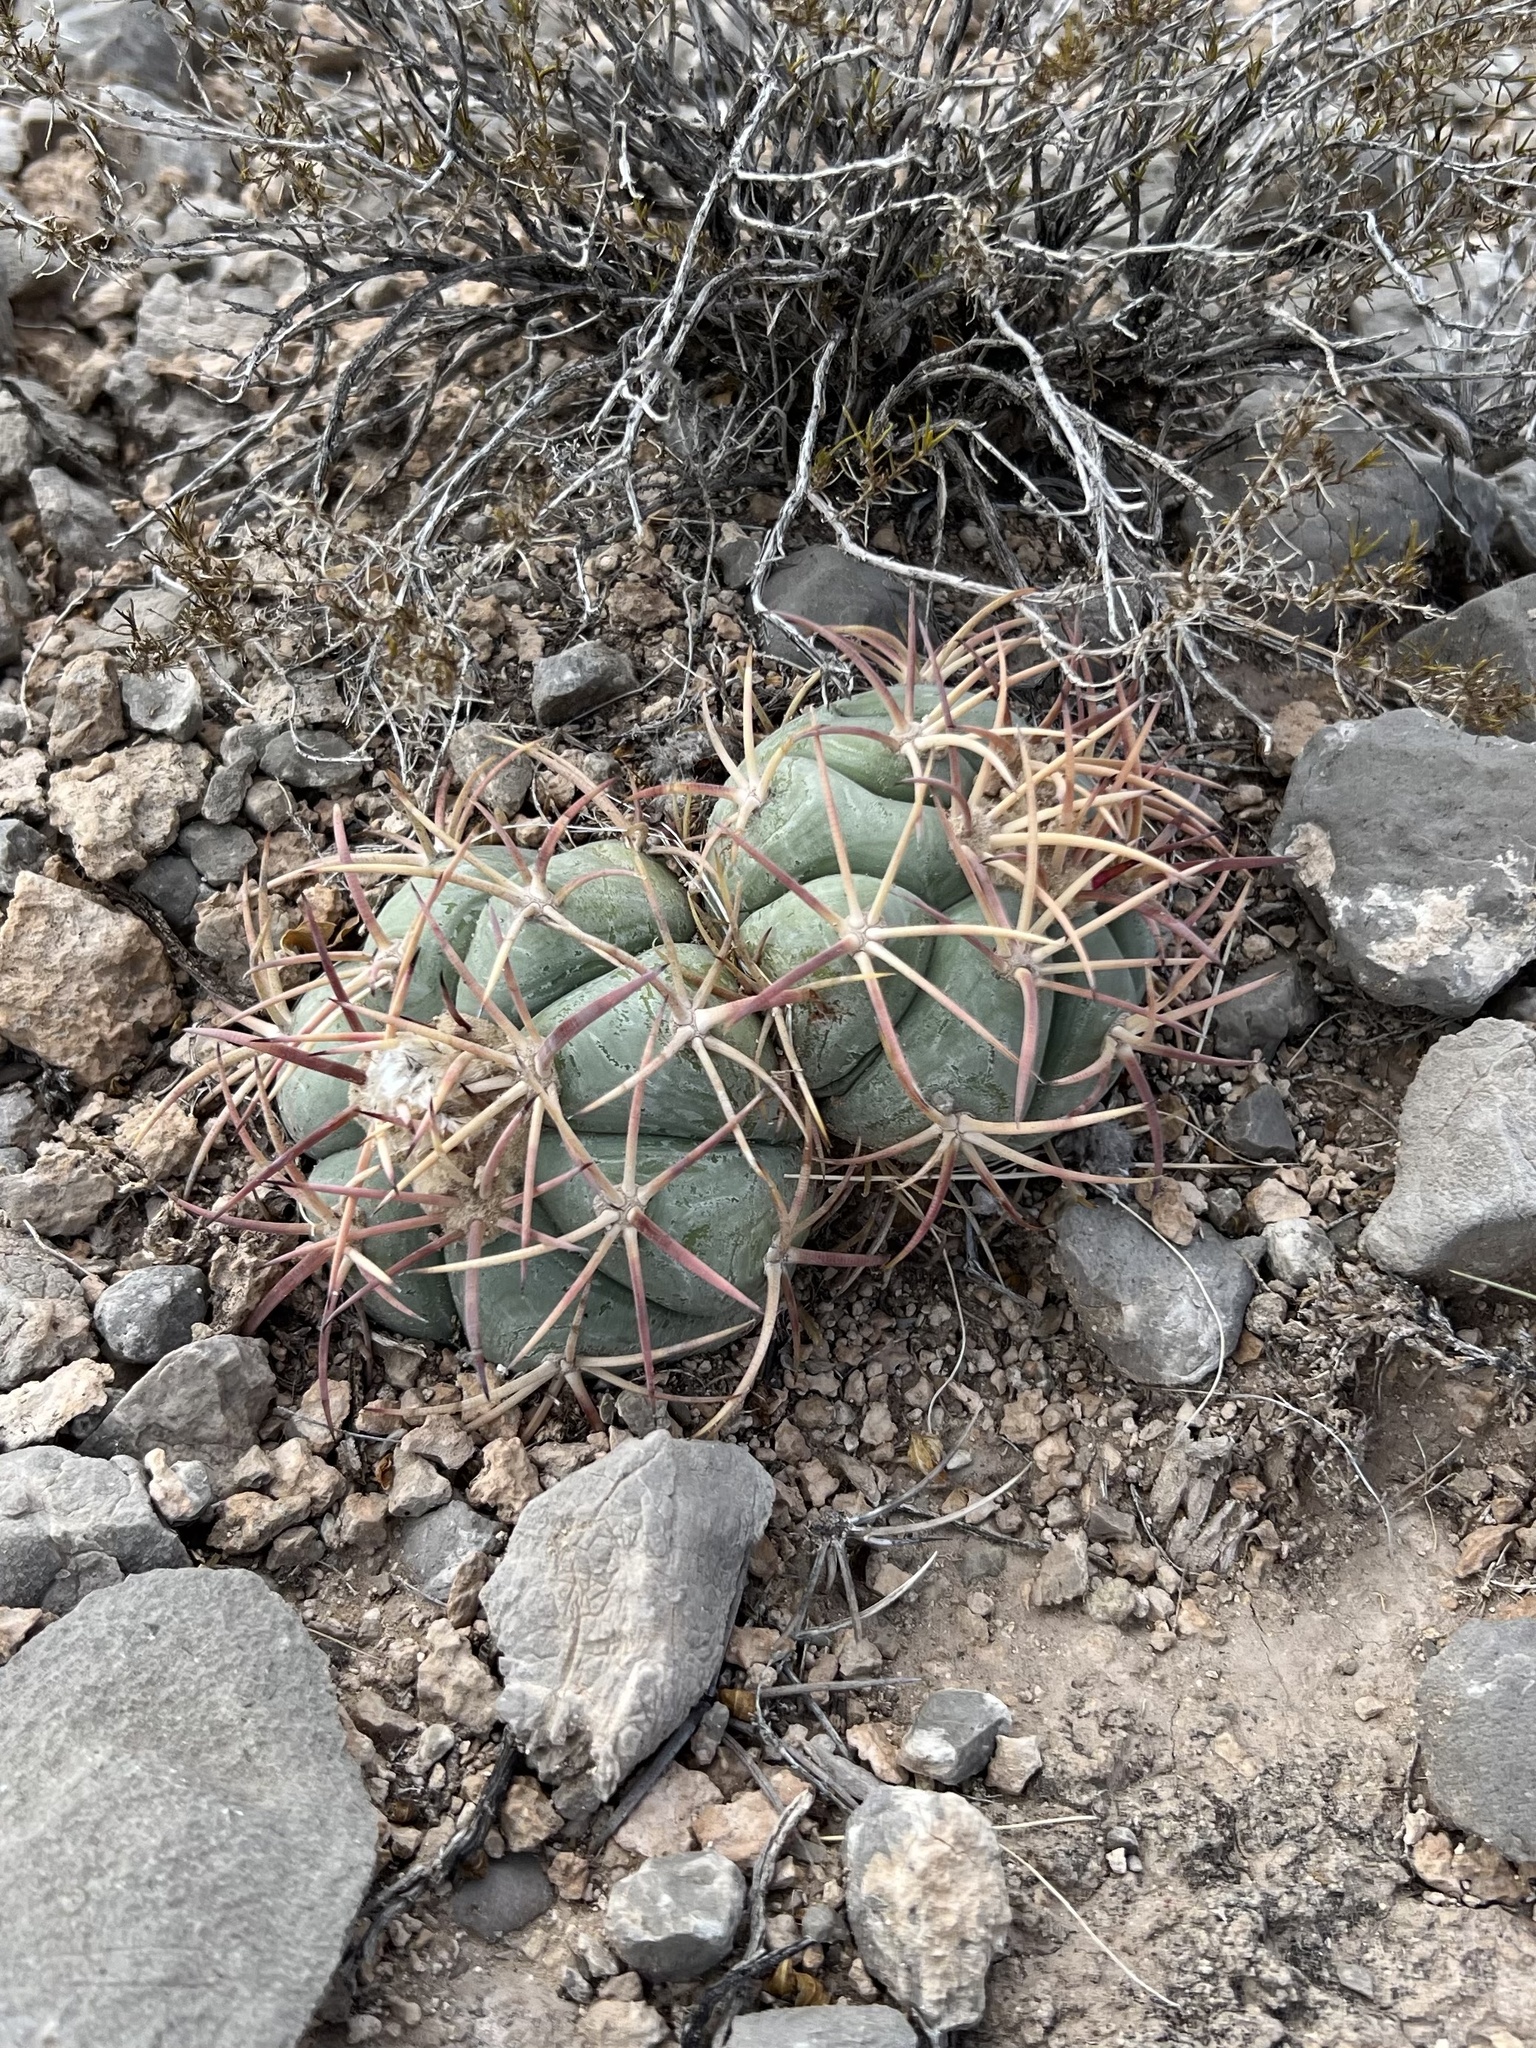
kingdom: Plantae
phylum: Tracheophyta
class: Magnoliopsida
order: Caryophyllales
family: Cactaceae
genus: Echinocactus
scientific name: Echinocactus horizonthalonius
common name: Devilshead
